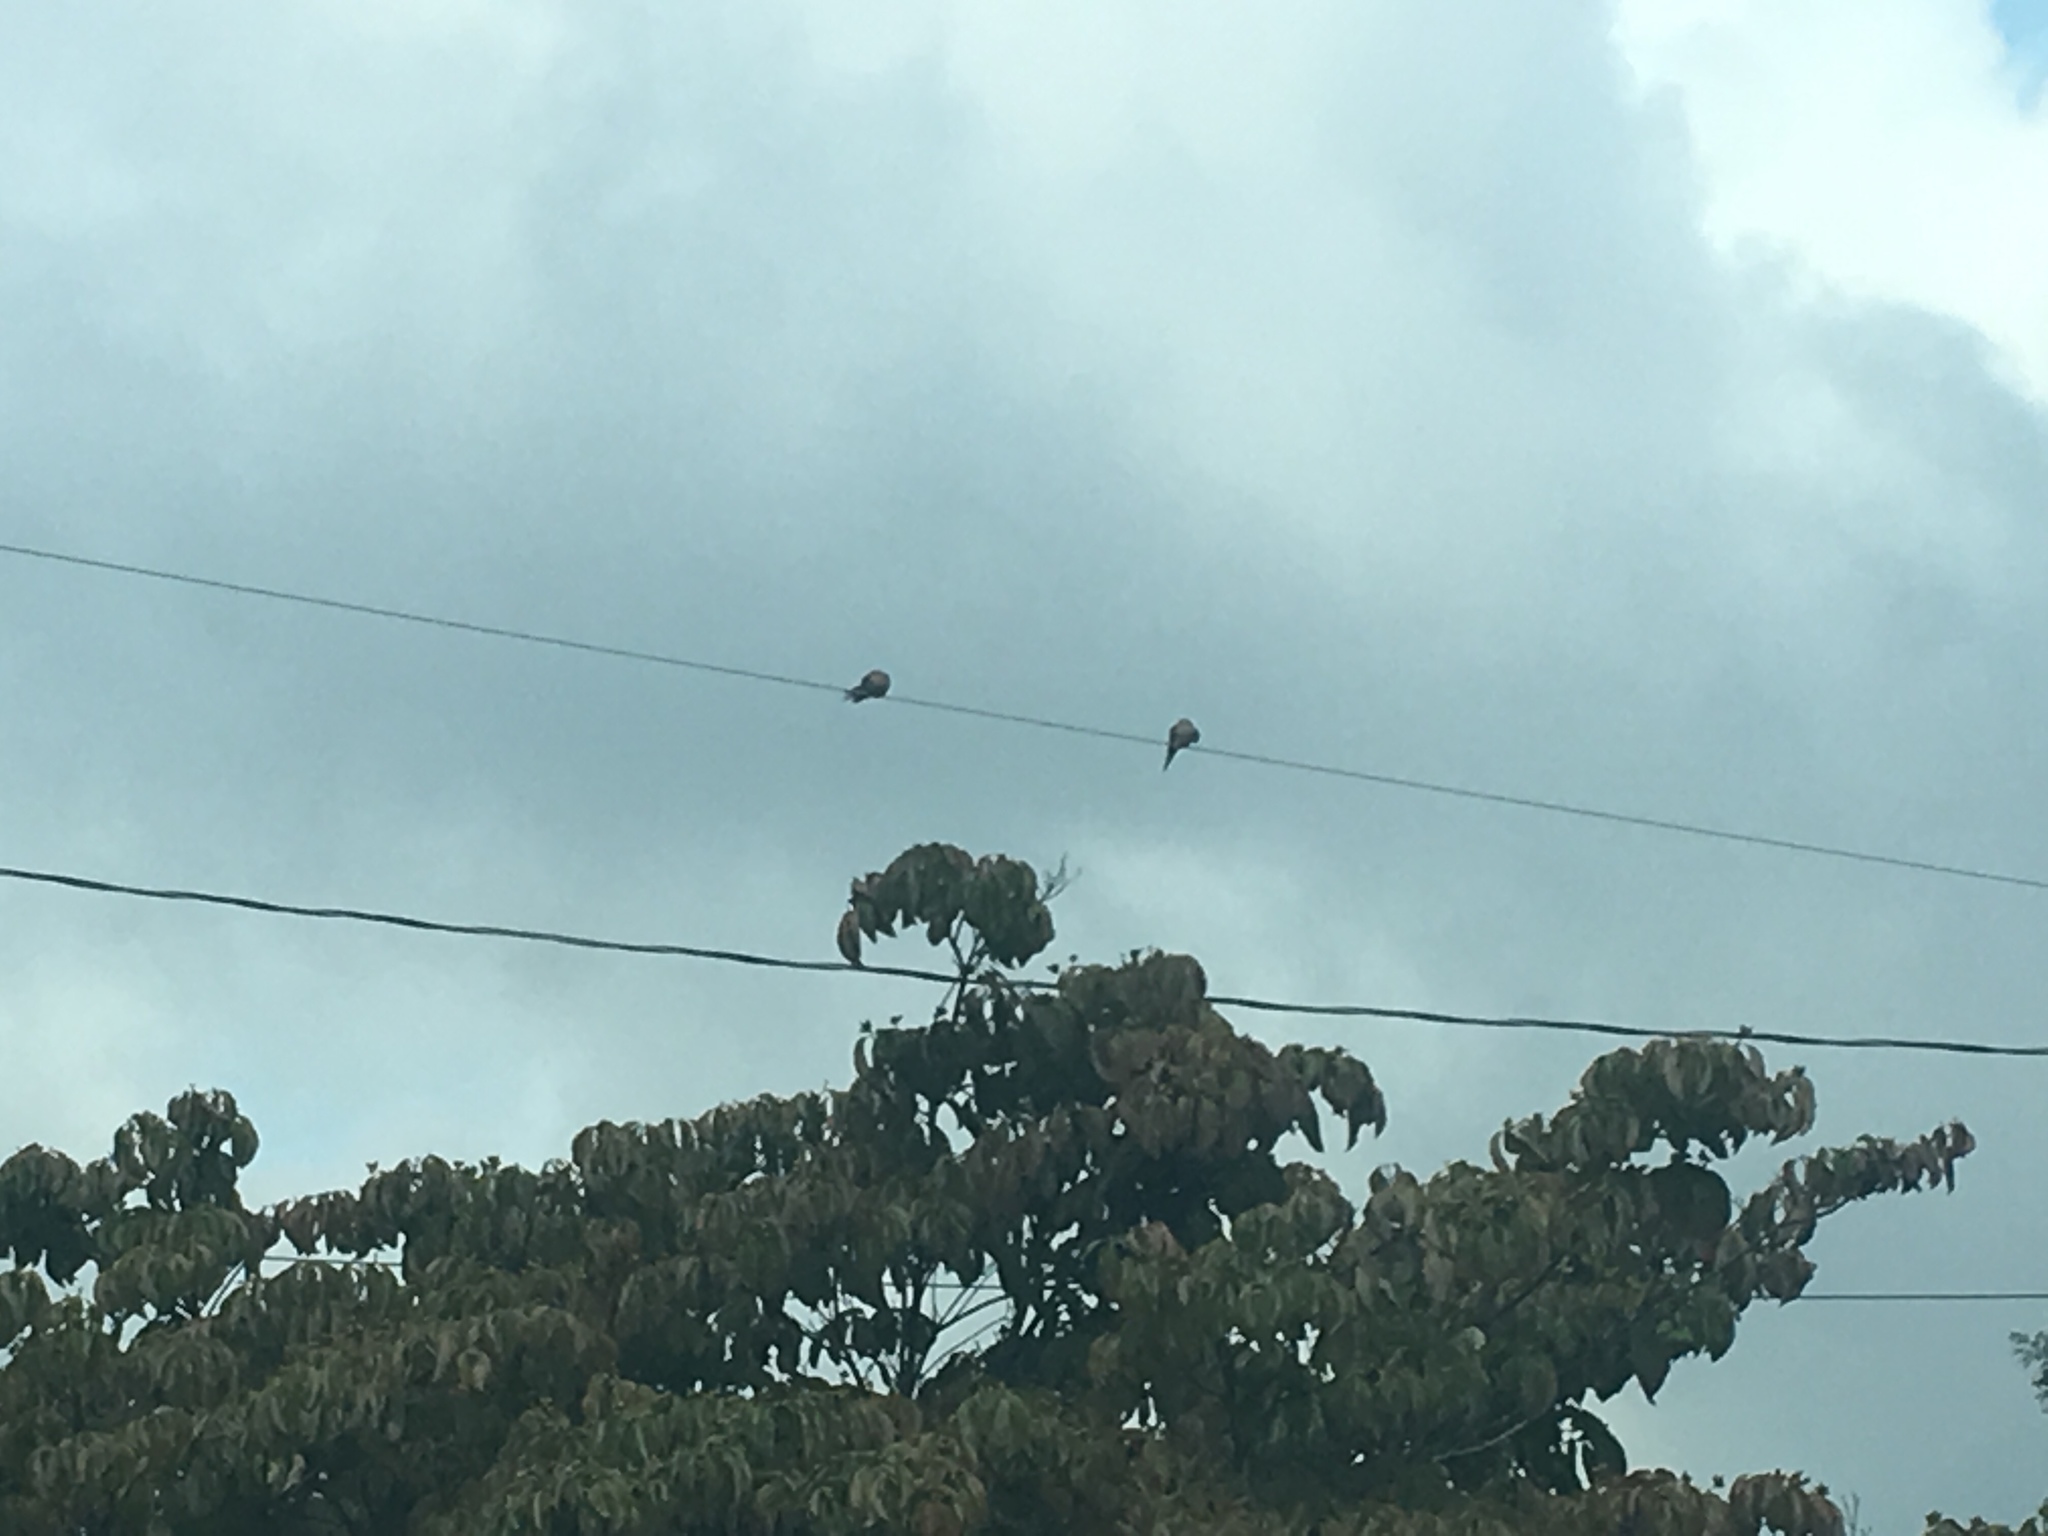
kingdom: Animalia
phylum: Chordata
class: Aves
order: Columbiformes
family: Columbidae
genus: Zenaida
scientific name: Zenaida macroura
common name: Mourning dove
